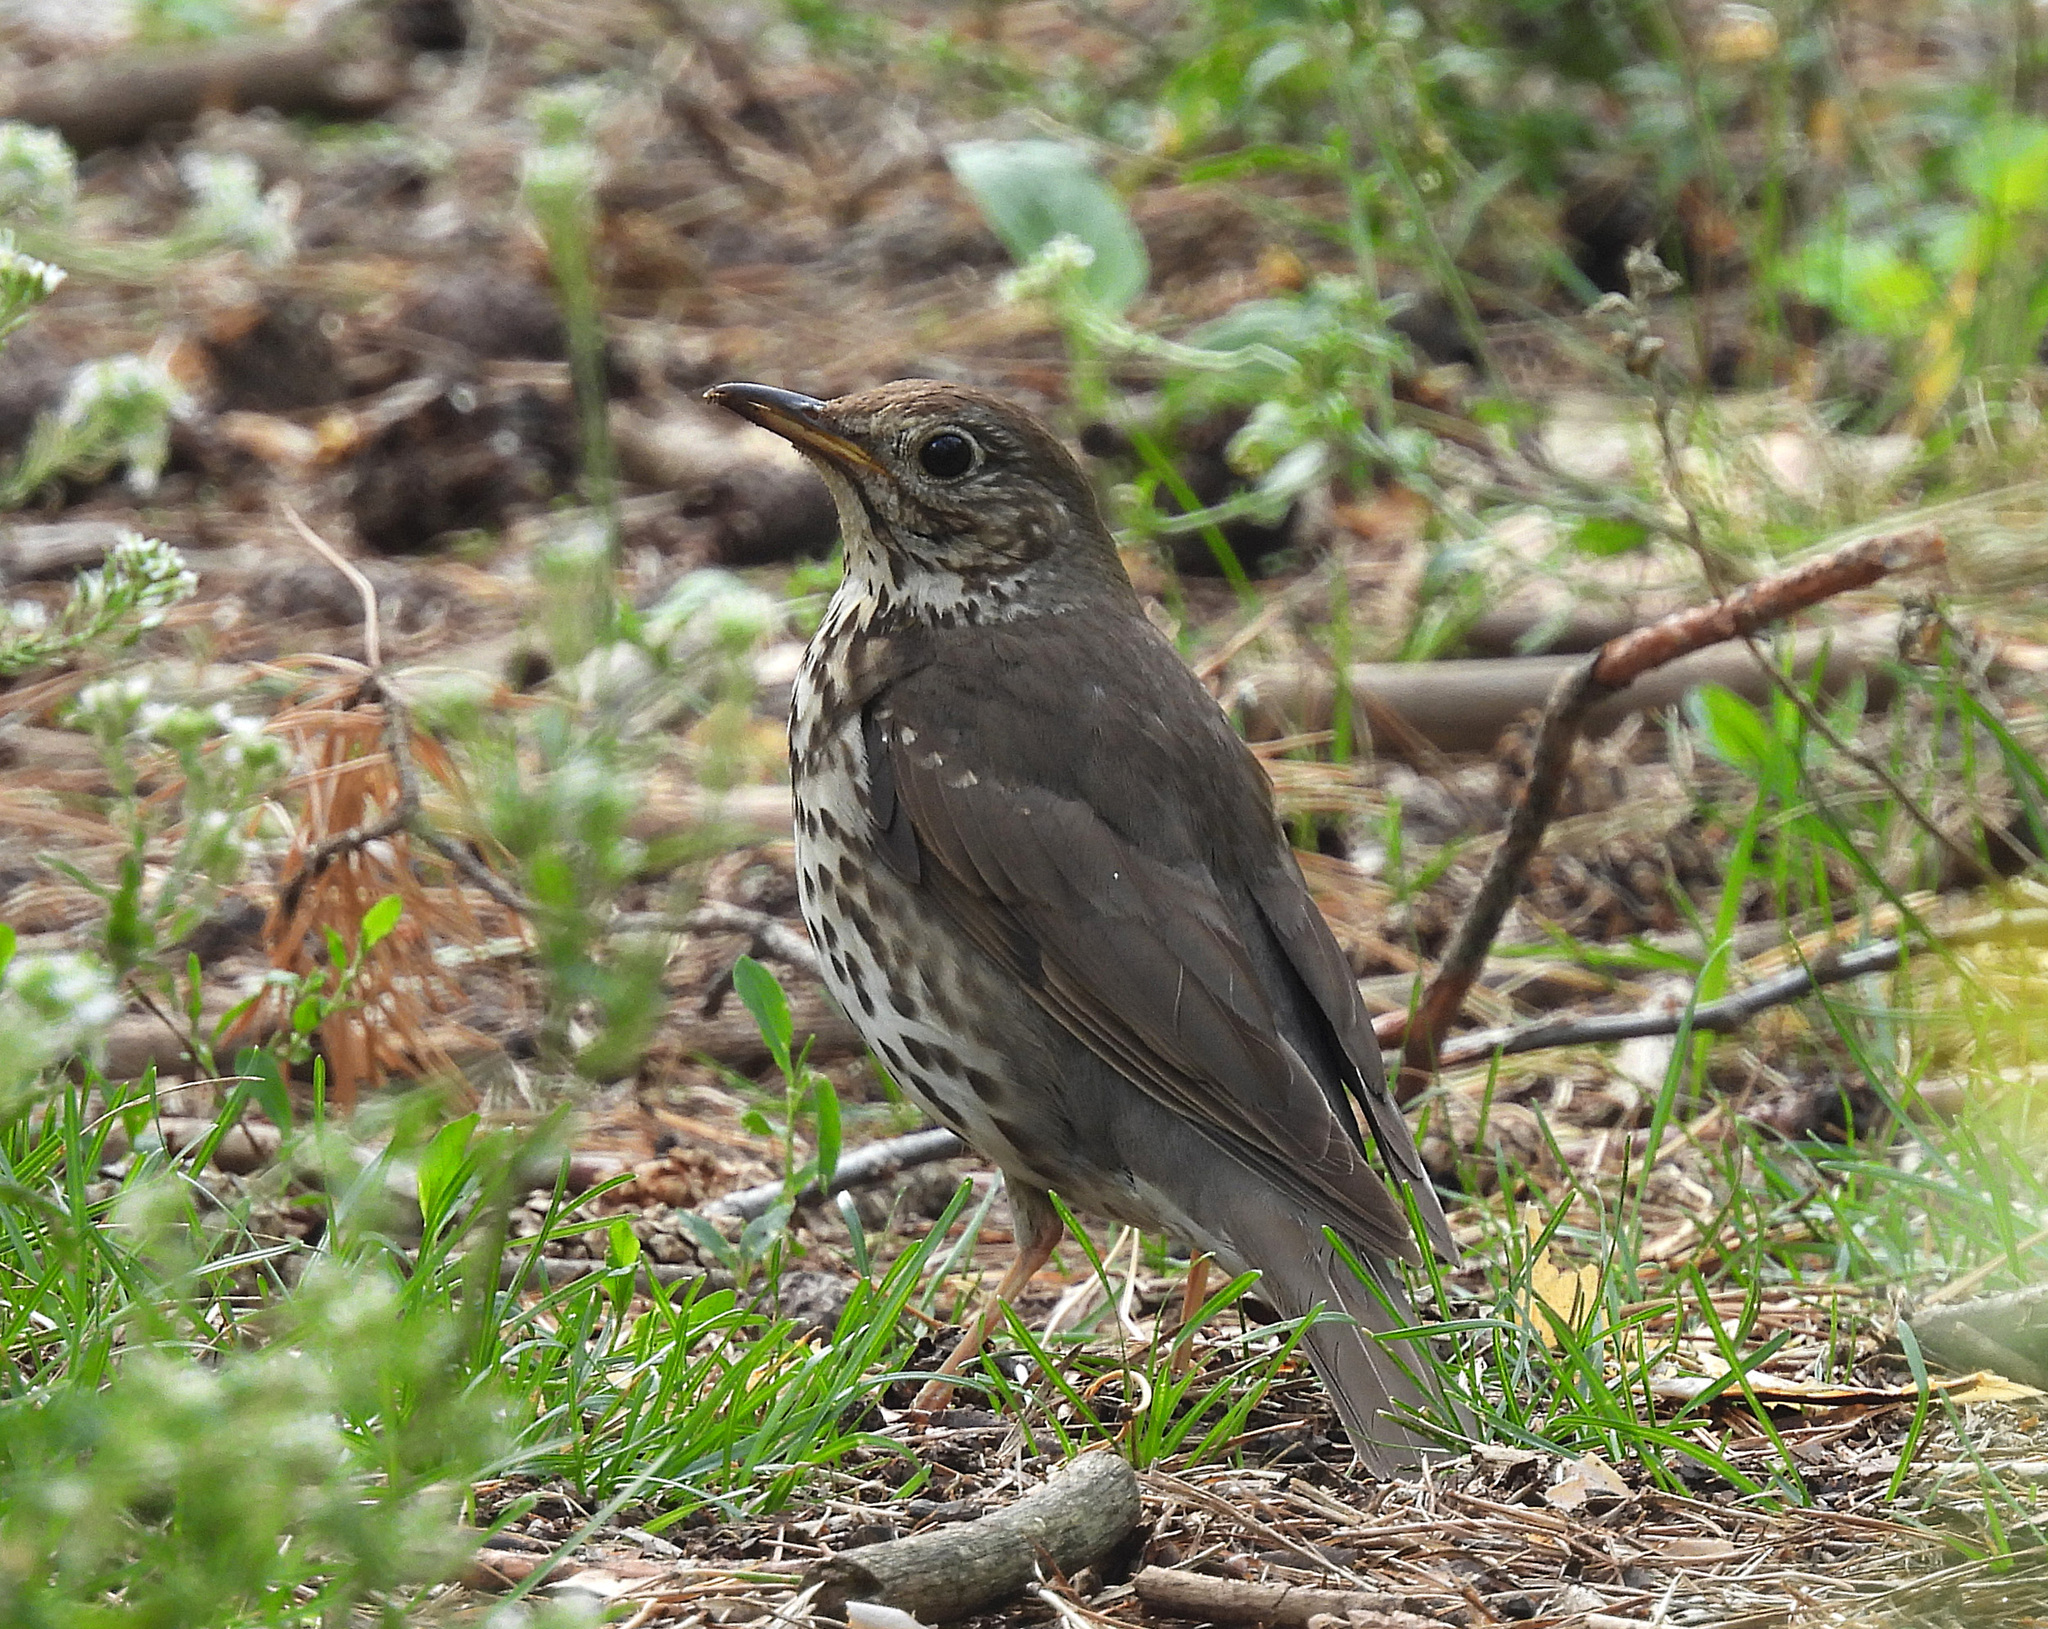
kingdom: Animalia
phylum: Chordata
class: Aves
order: Passeriformes
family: Turdidae
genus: Turdus
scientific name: Turdus philomelos
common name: Song thrush
